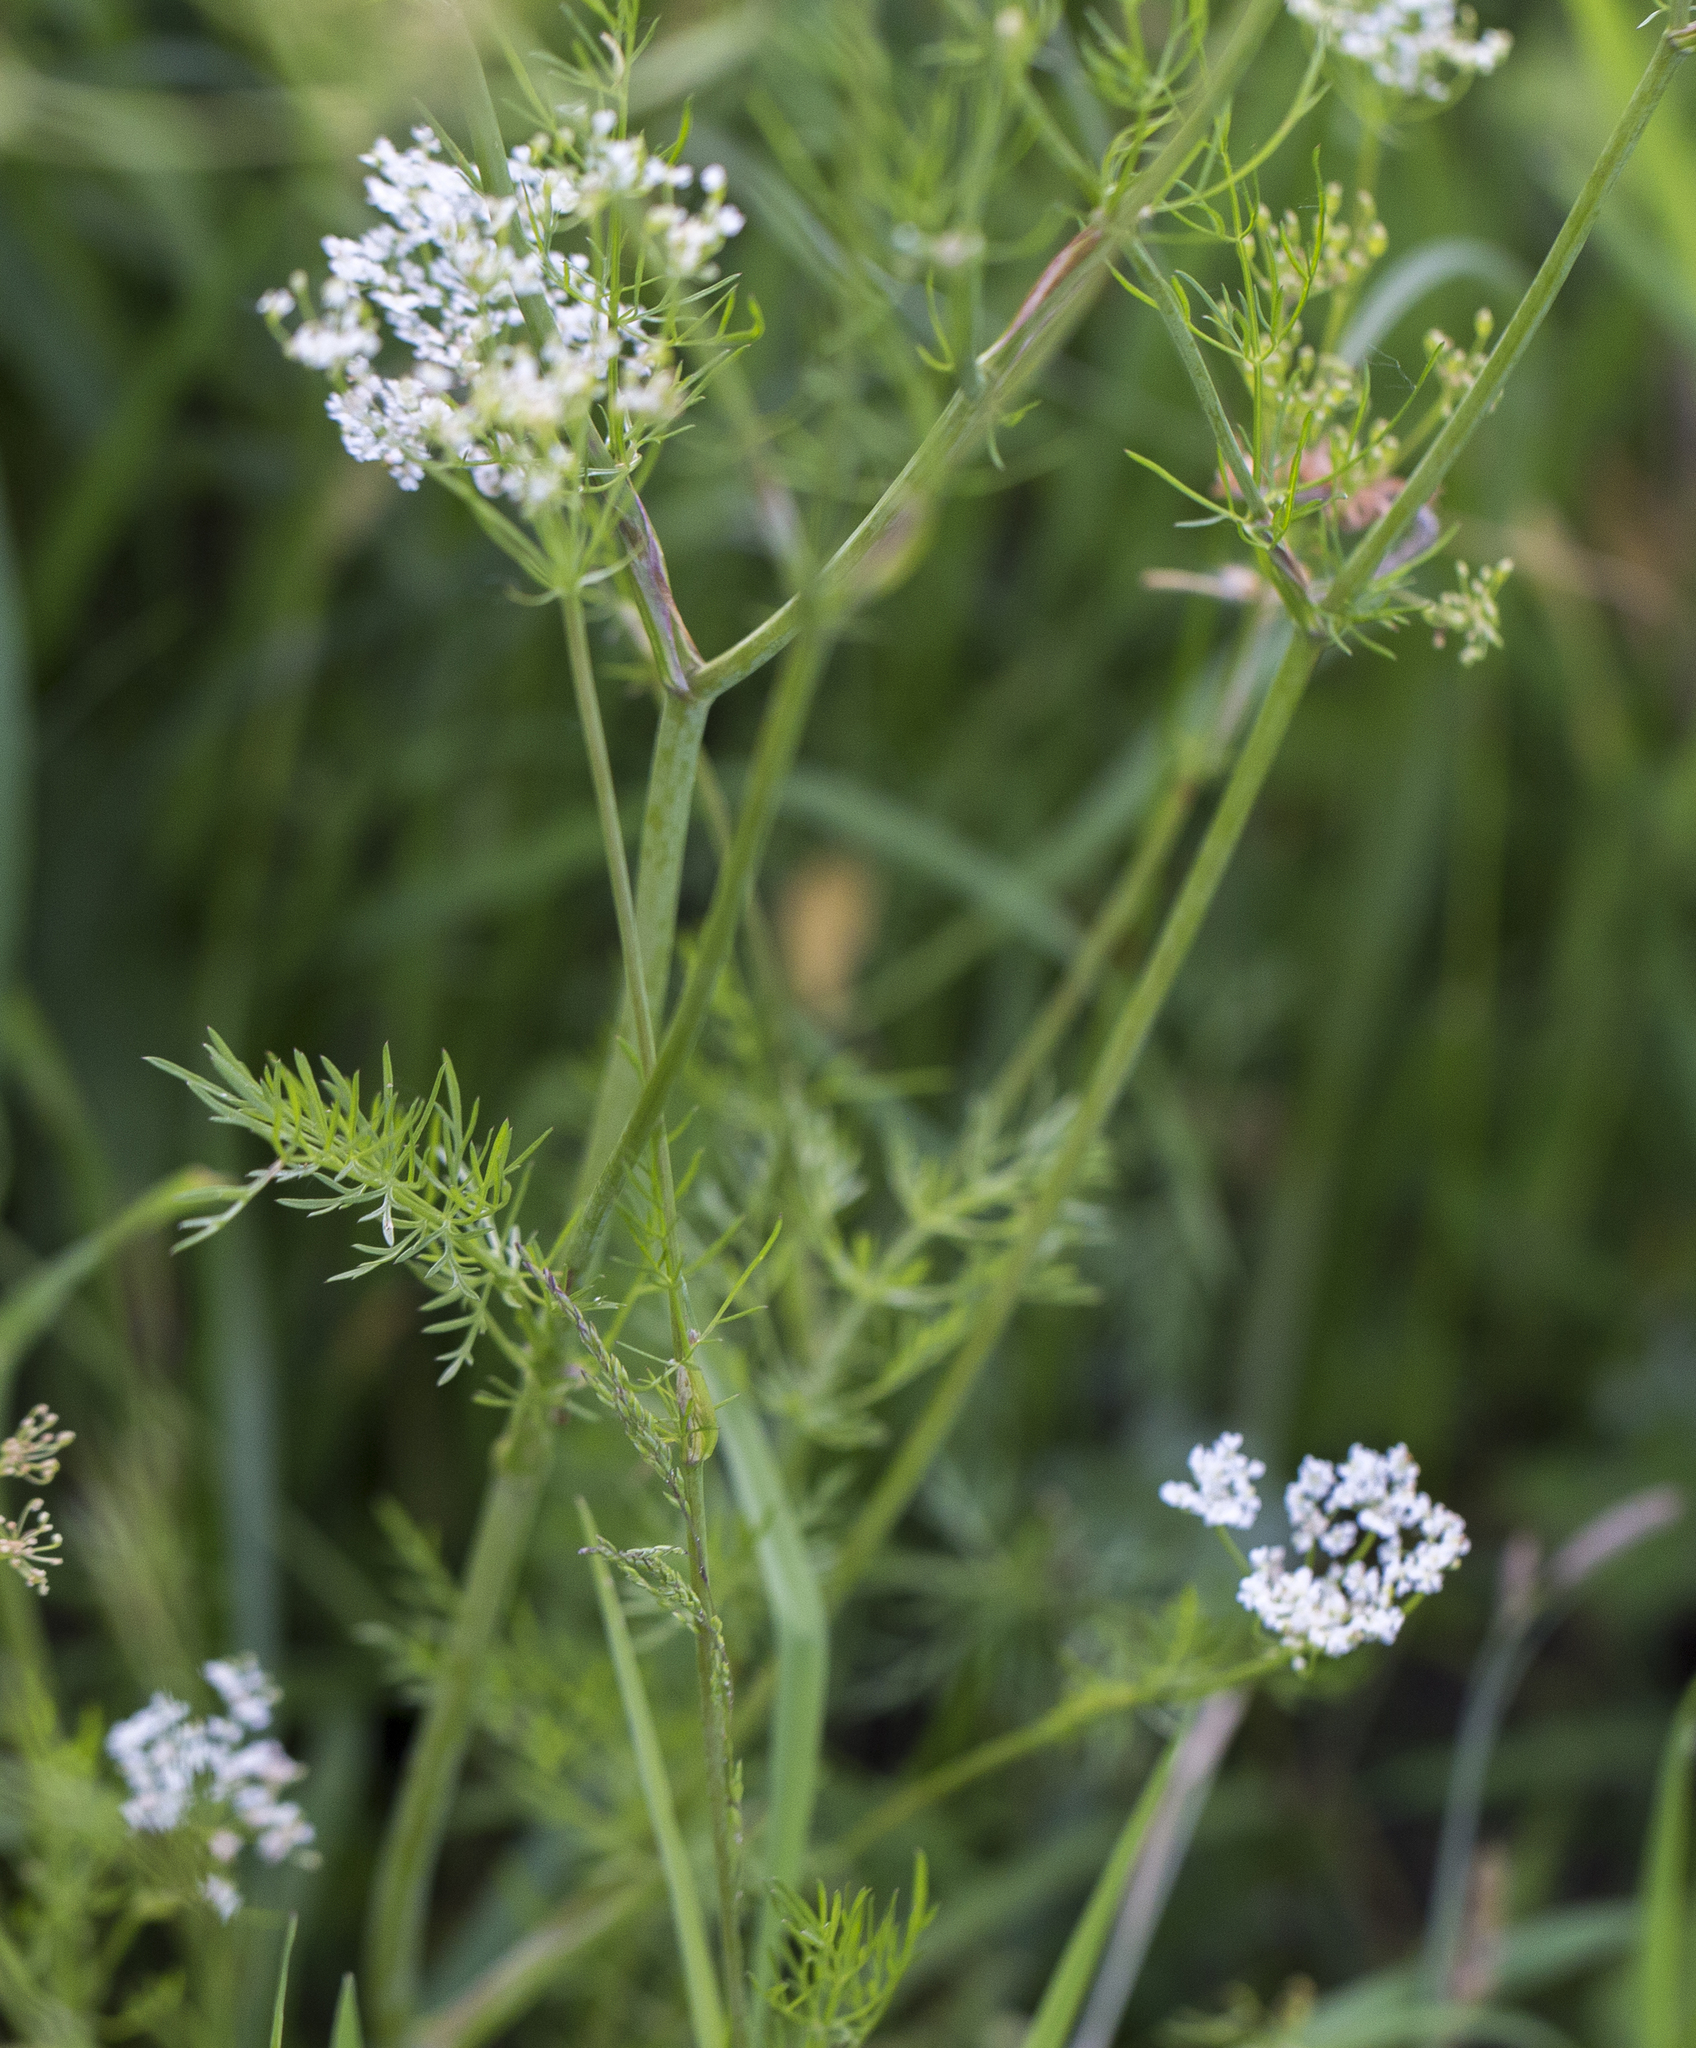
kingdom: Plantae
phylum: Tracheophyta
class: Magnoliopsida
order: Apiales
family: Apiaceae
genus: Carum
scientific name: Carum carvi
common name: Caraway
